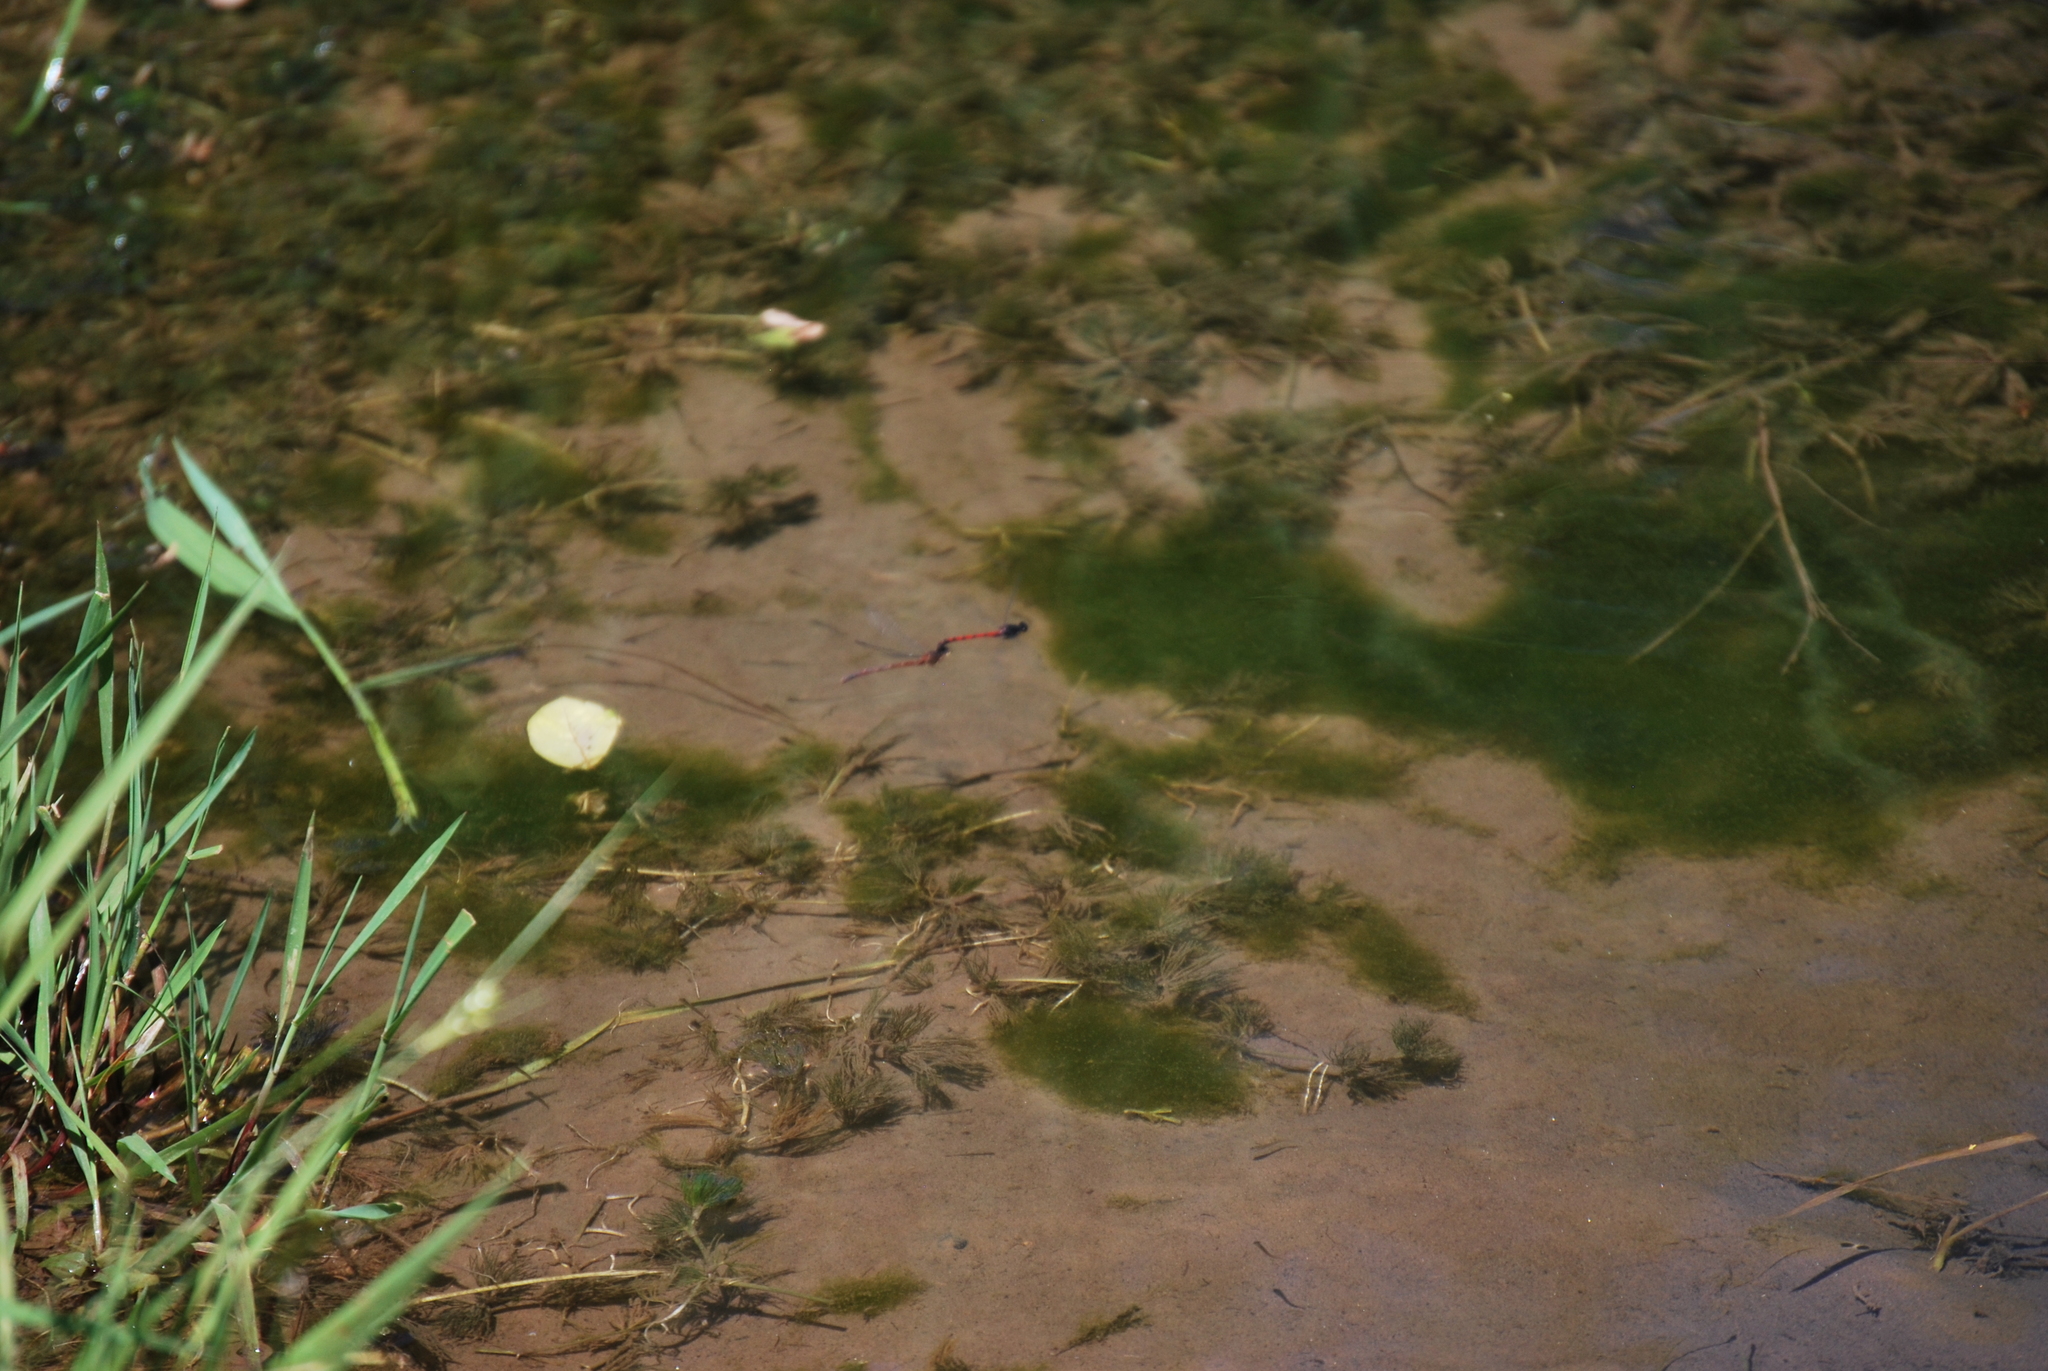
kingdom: Animalia
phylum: Arthropoda
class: Insecta
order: Odonata
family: Coenagrionidae
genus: Amphiagrion
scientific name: Amphiagrion abbreviatum
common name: Western red damsel
